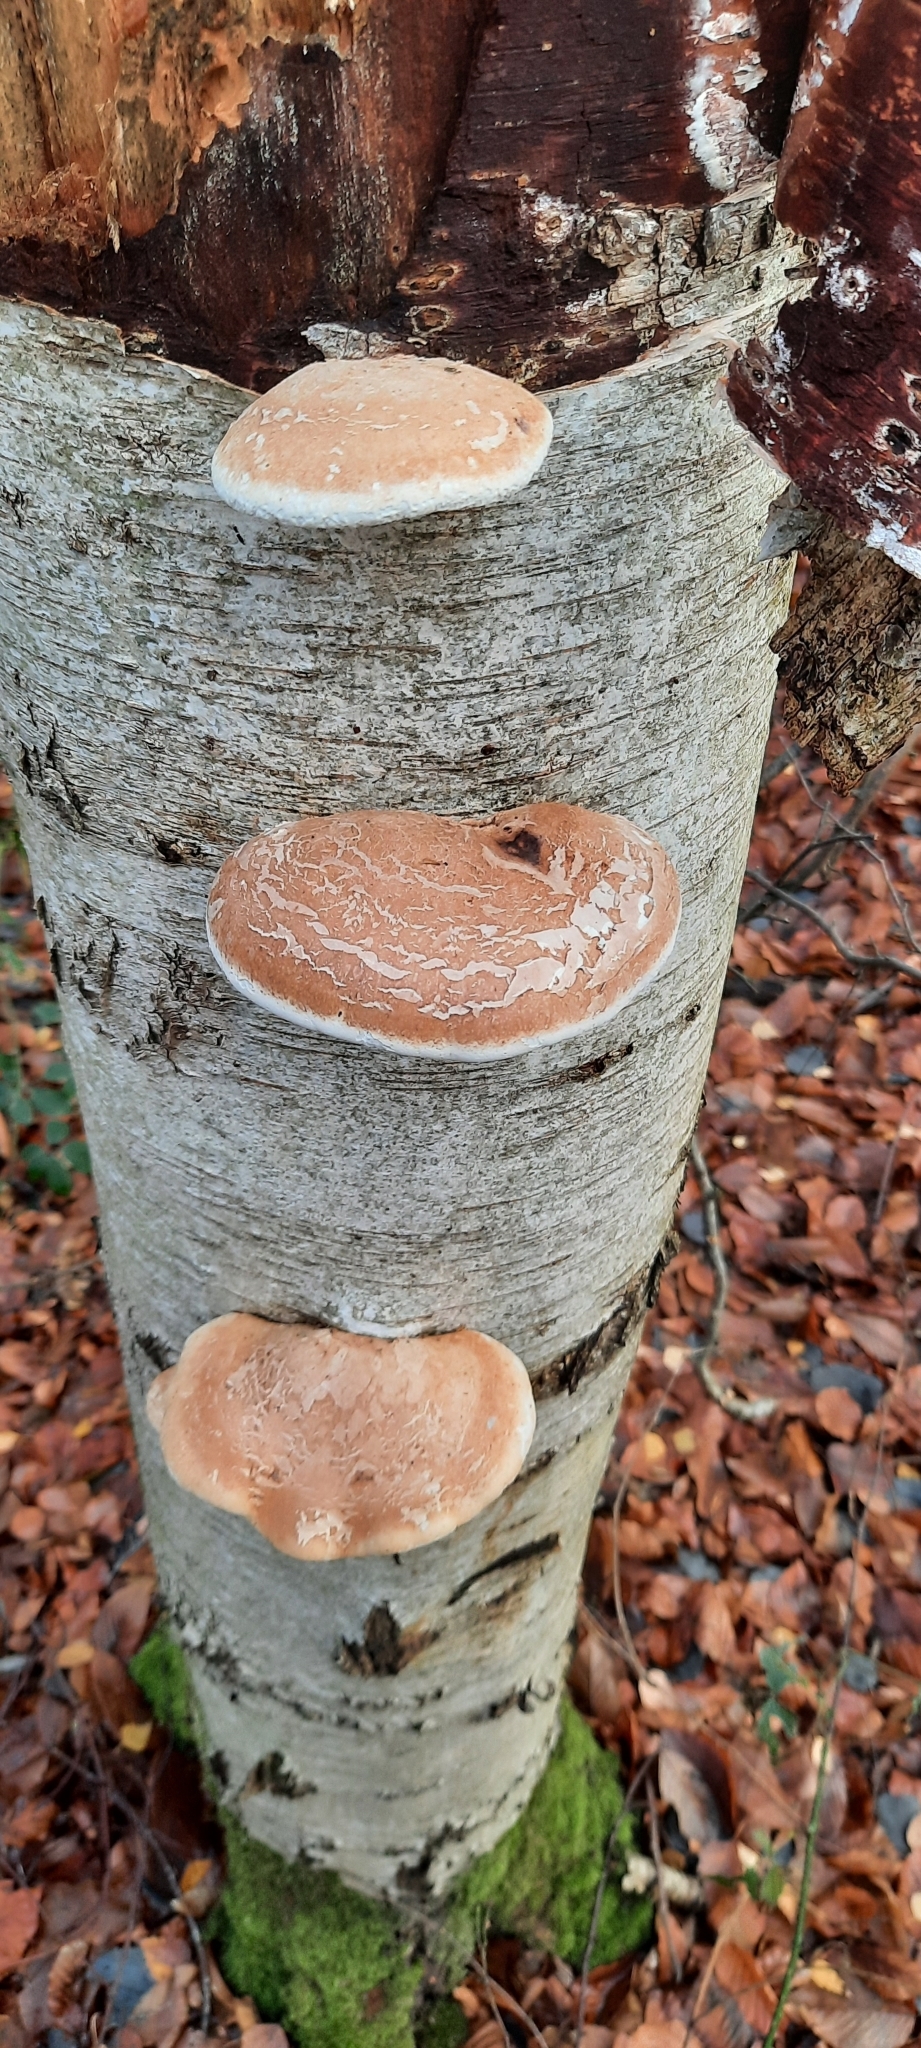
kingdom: Fungi
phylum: Basidiomycota
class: Agaricomycetes
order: Polyporales
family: Fomitopsidaceae
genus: Fomitopsis
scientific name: Fomitopsis betulina
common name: Birch polypore
